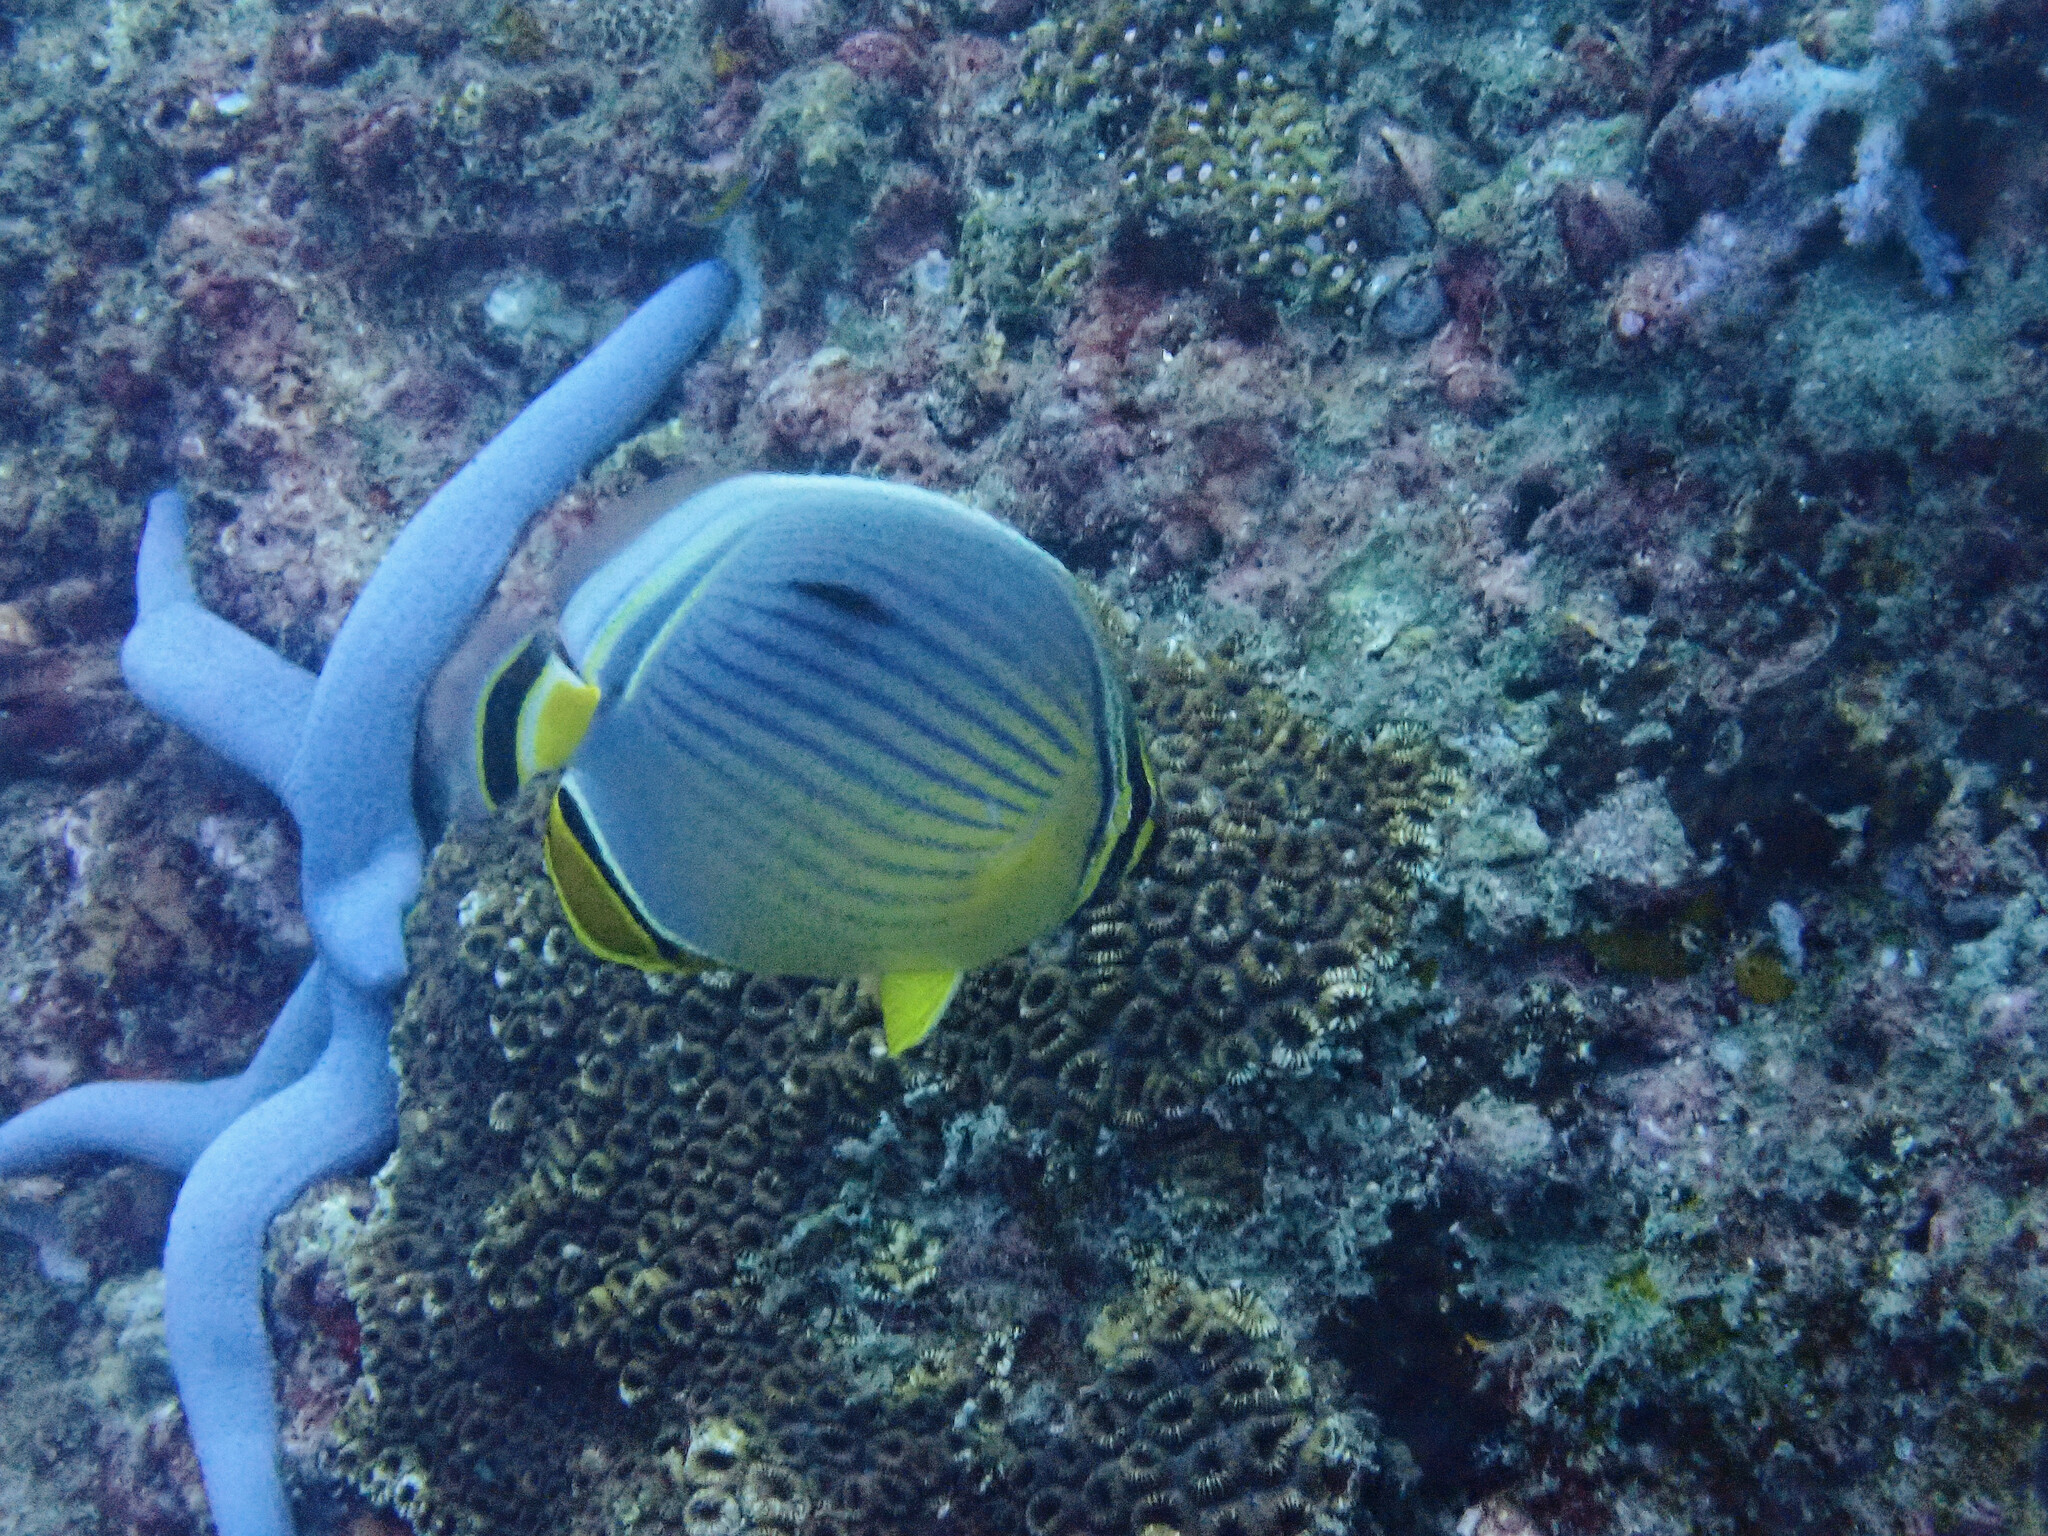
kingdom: Animalia
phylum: Chordata
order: Perciformes
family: Chaetodontidae
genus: Chaetodon
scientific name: Chaetodon trifasciatus
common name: Redfin butterflyfish
